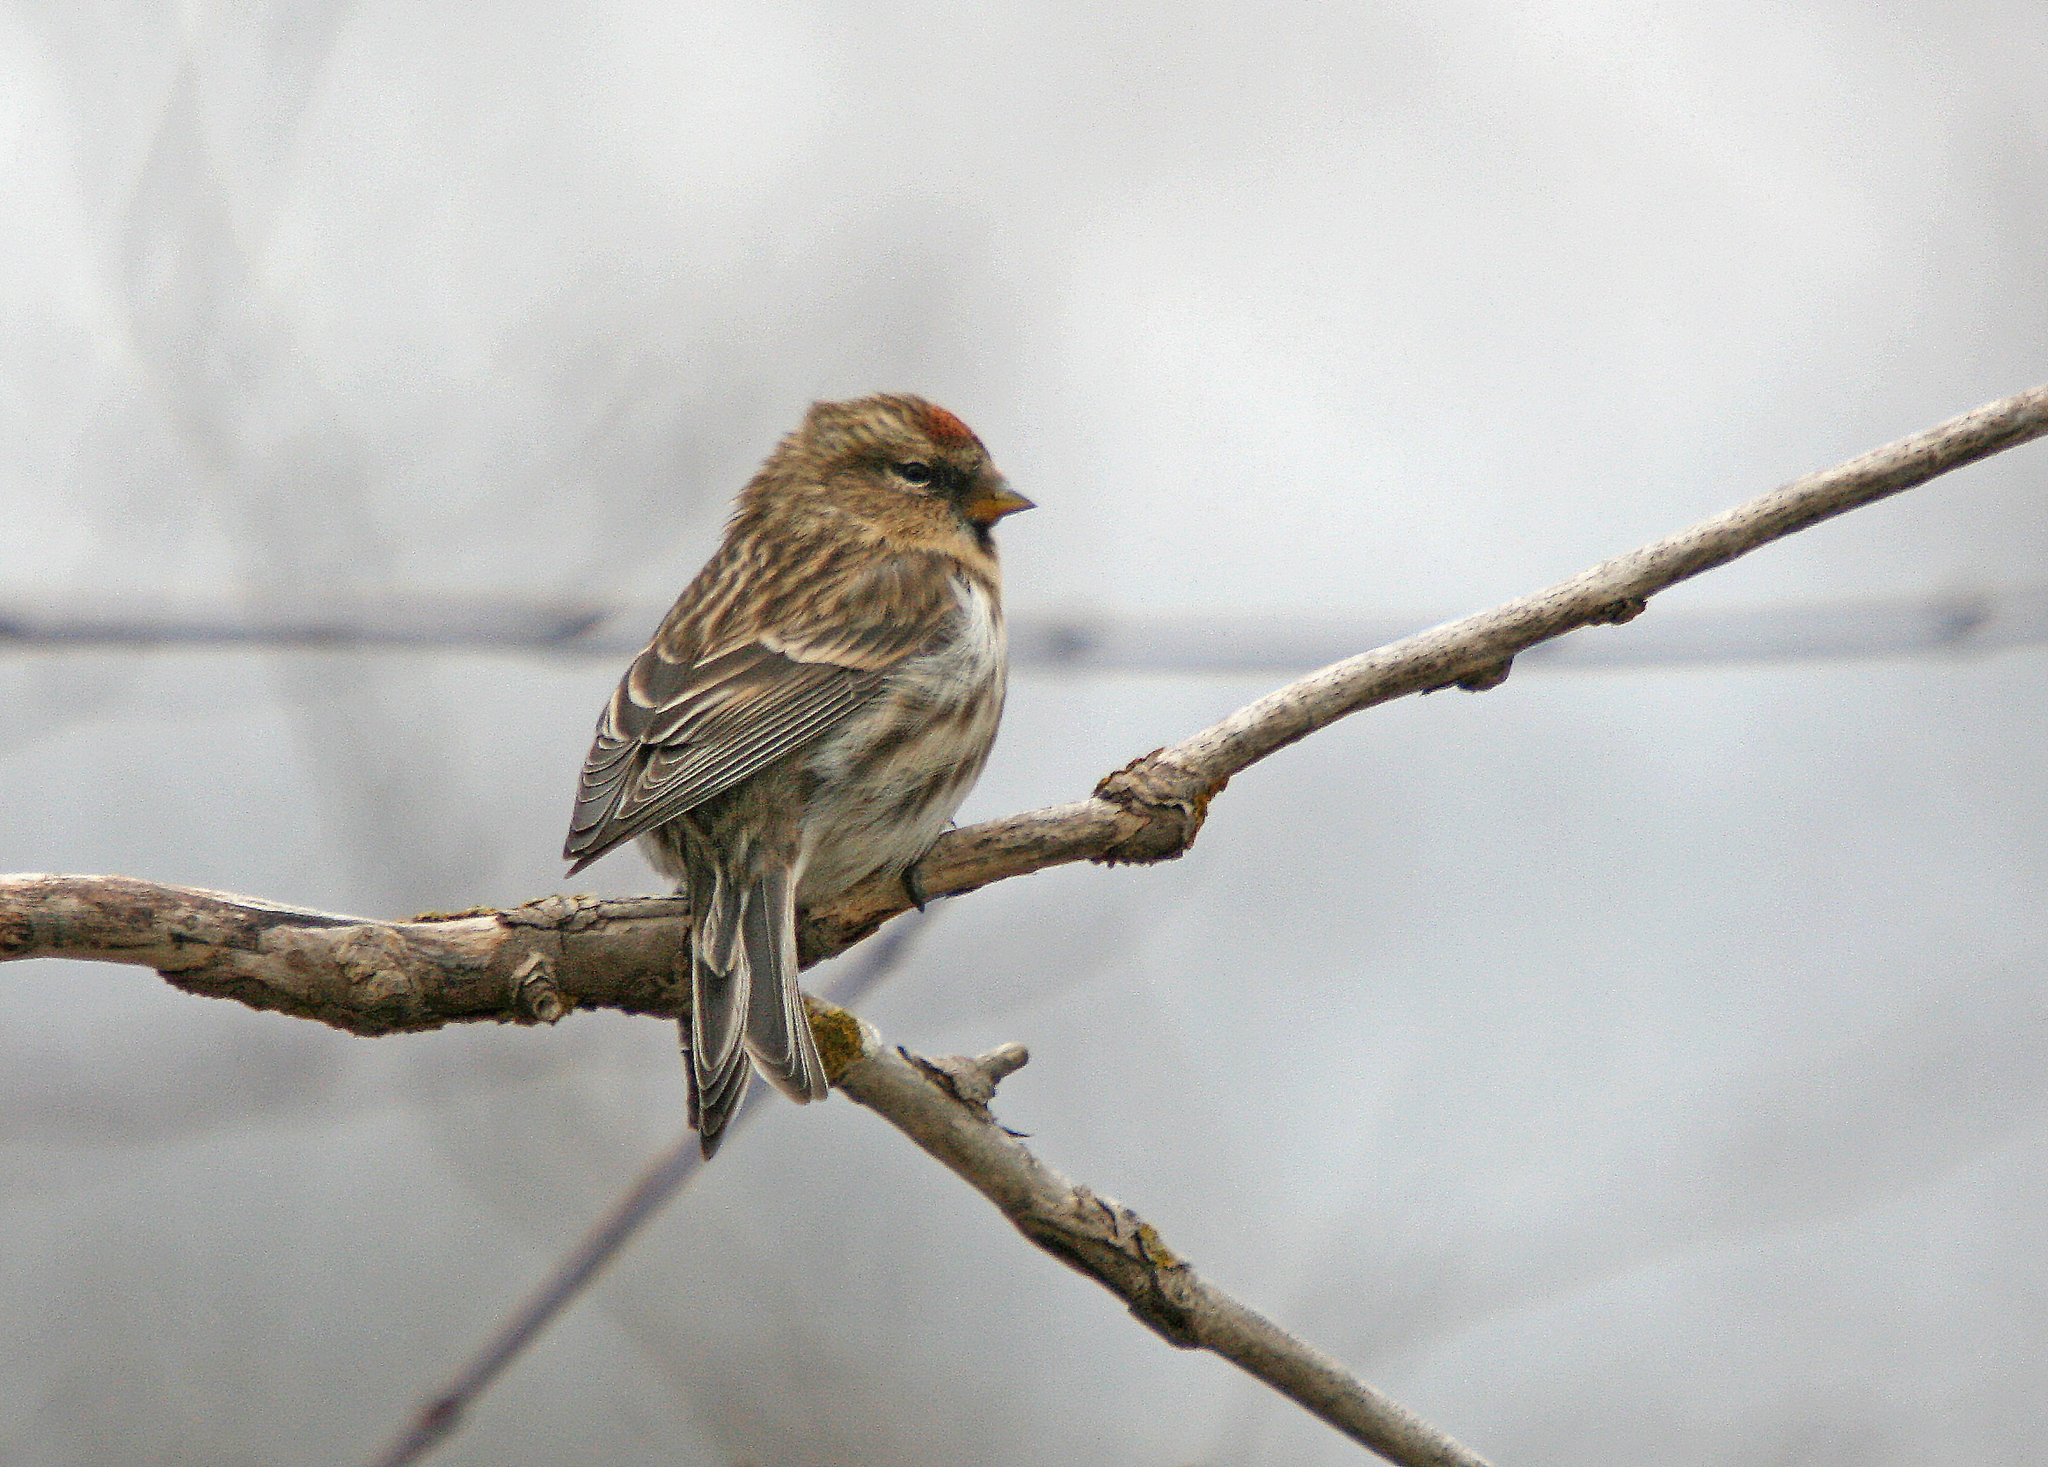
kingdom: Animalia
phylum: Chordata
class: Aves
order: Passeriformes
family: Fringillidae
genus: Acanthis
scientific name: Acanthis flammea
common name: Common redpoll
